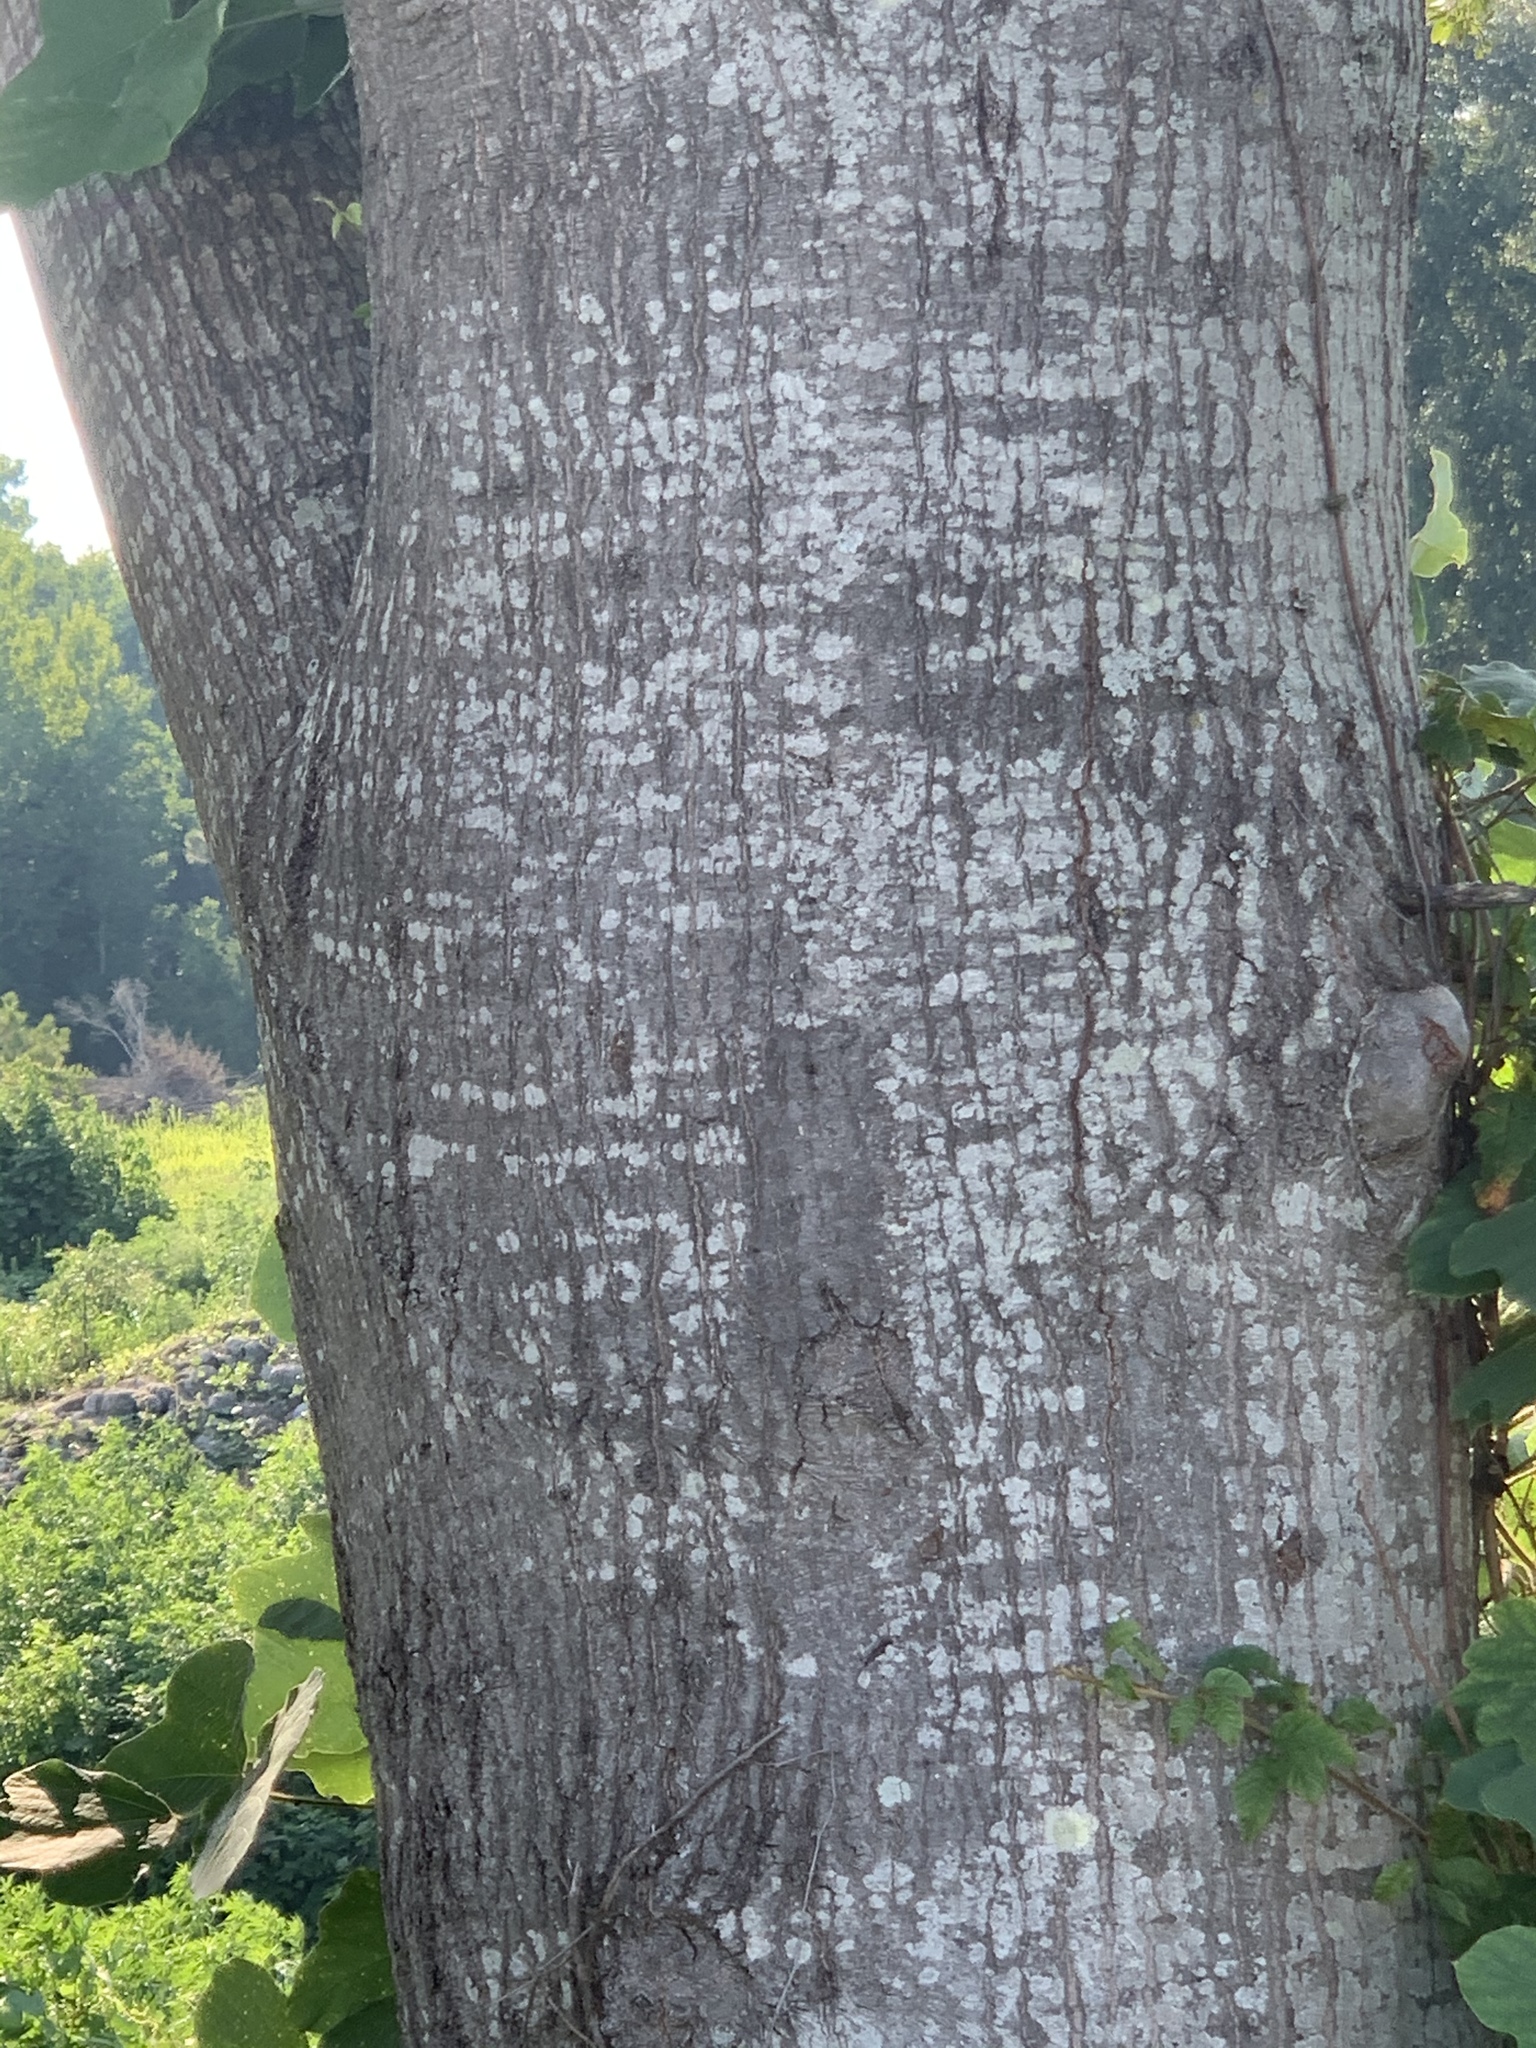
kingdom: Plantae
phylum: Tracheophyta
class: Magnoliopsida
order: Fagales
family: Fagaceae
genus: Quercus
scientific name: Quercus nigra
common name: Water oak
